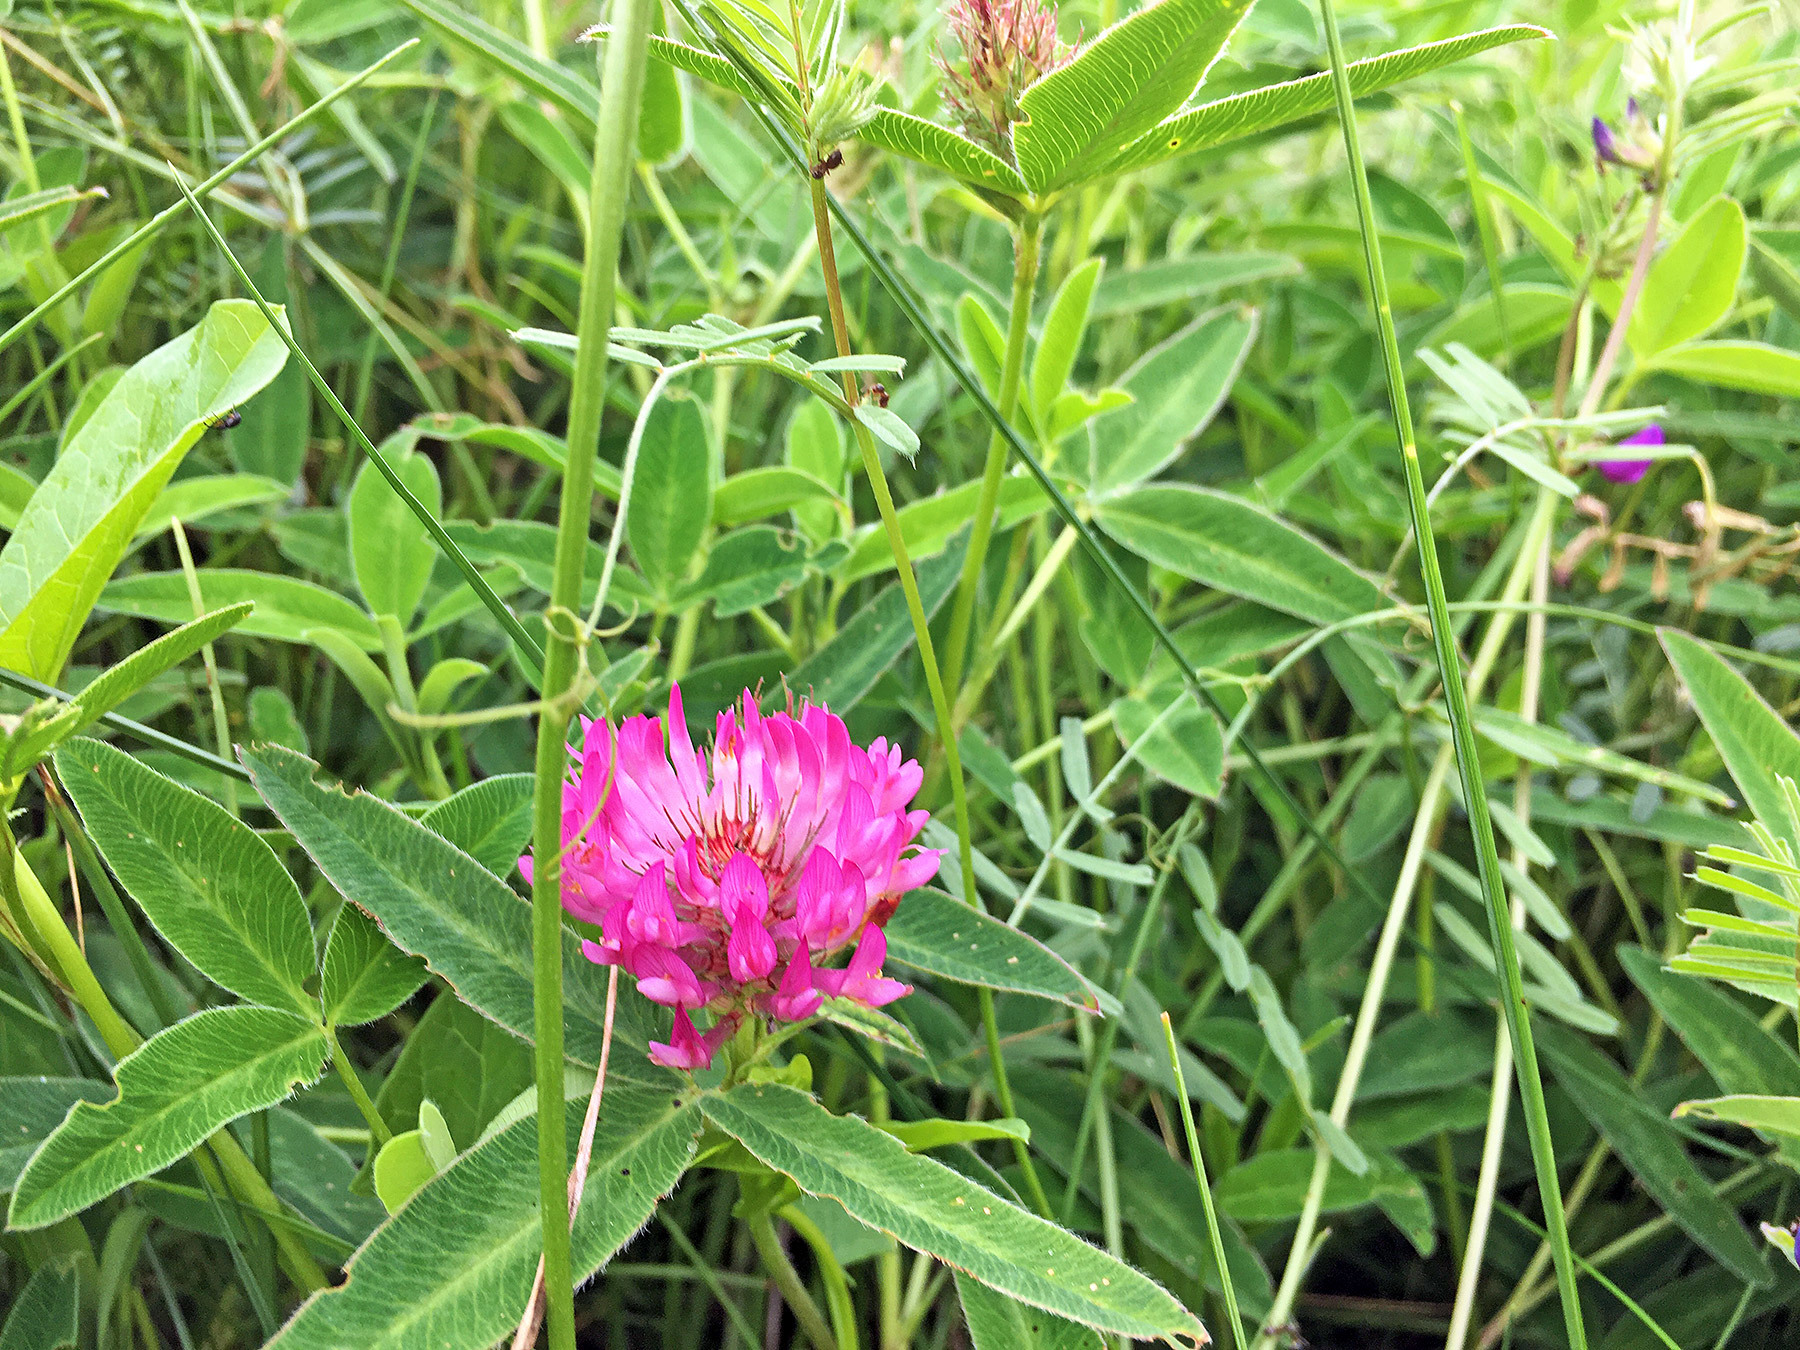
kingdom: Plantae
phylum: Tracheophyta
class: Magnoliopsida
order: Fabales
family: Fabaceae
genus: Trifolium
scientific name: Trifolium alpestre
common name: Owl-head clover
